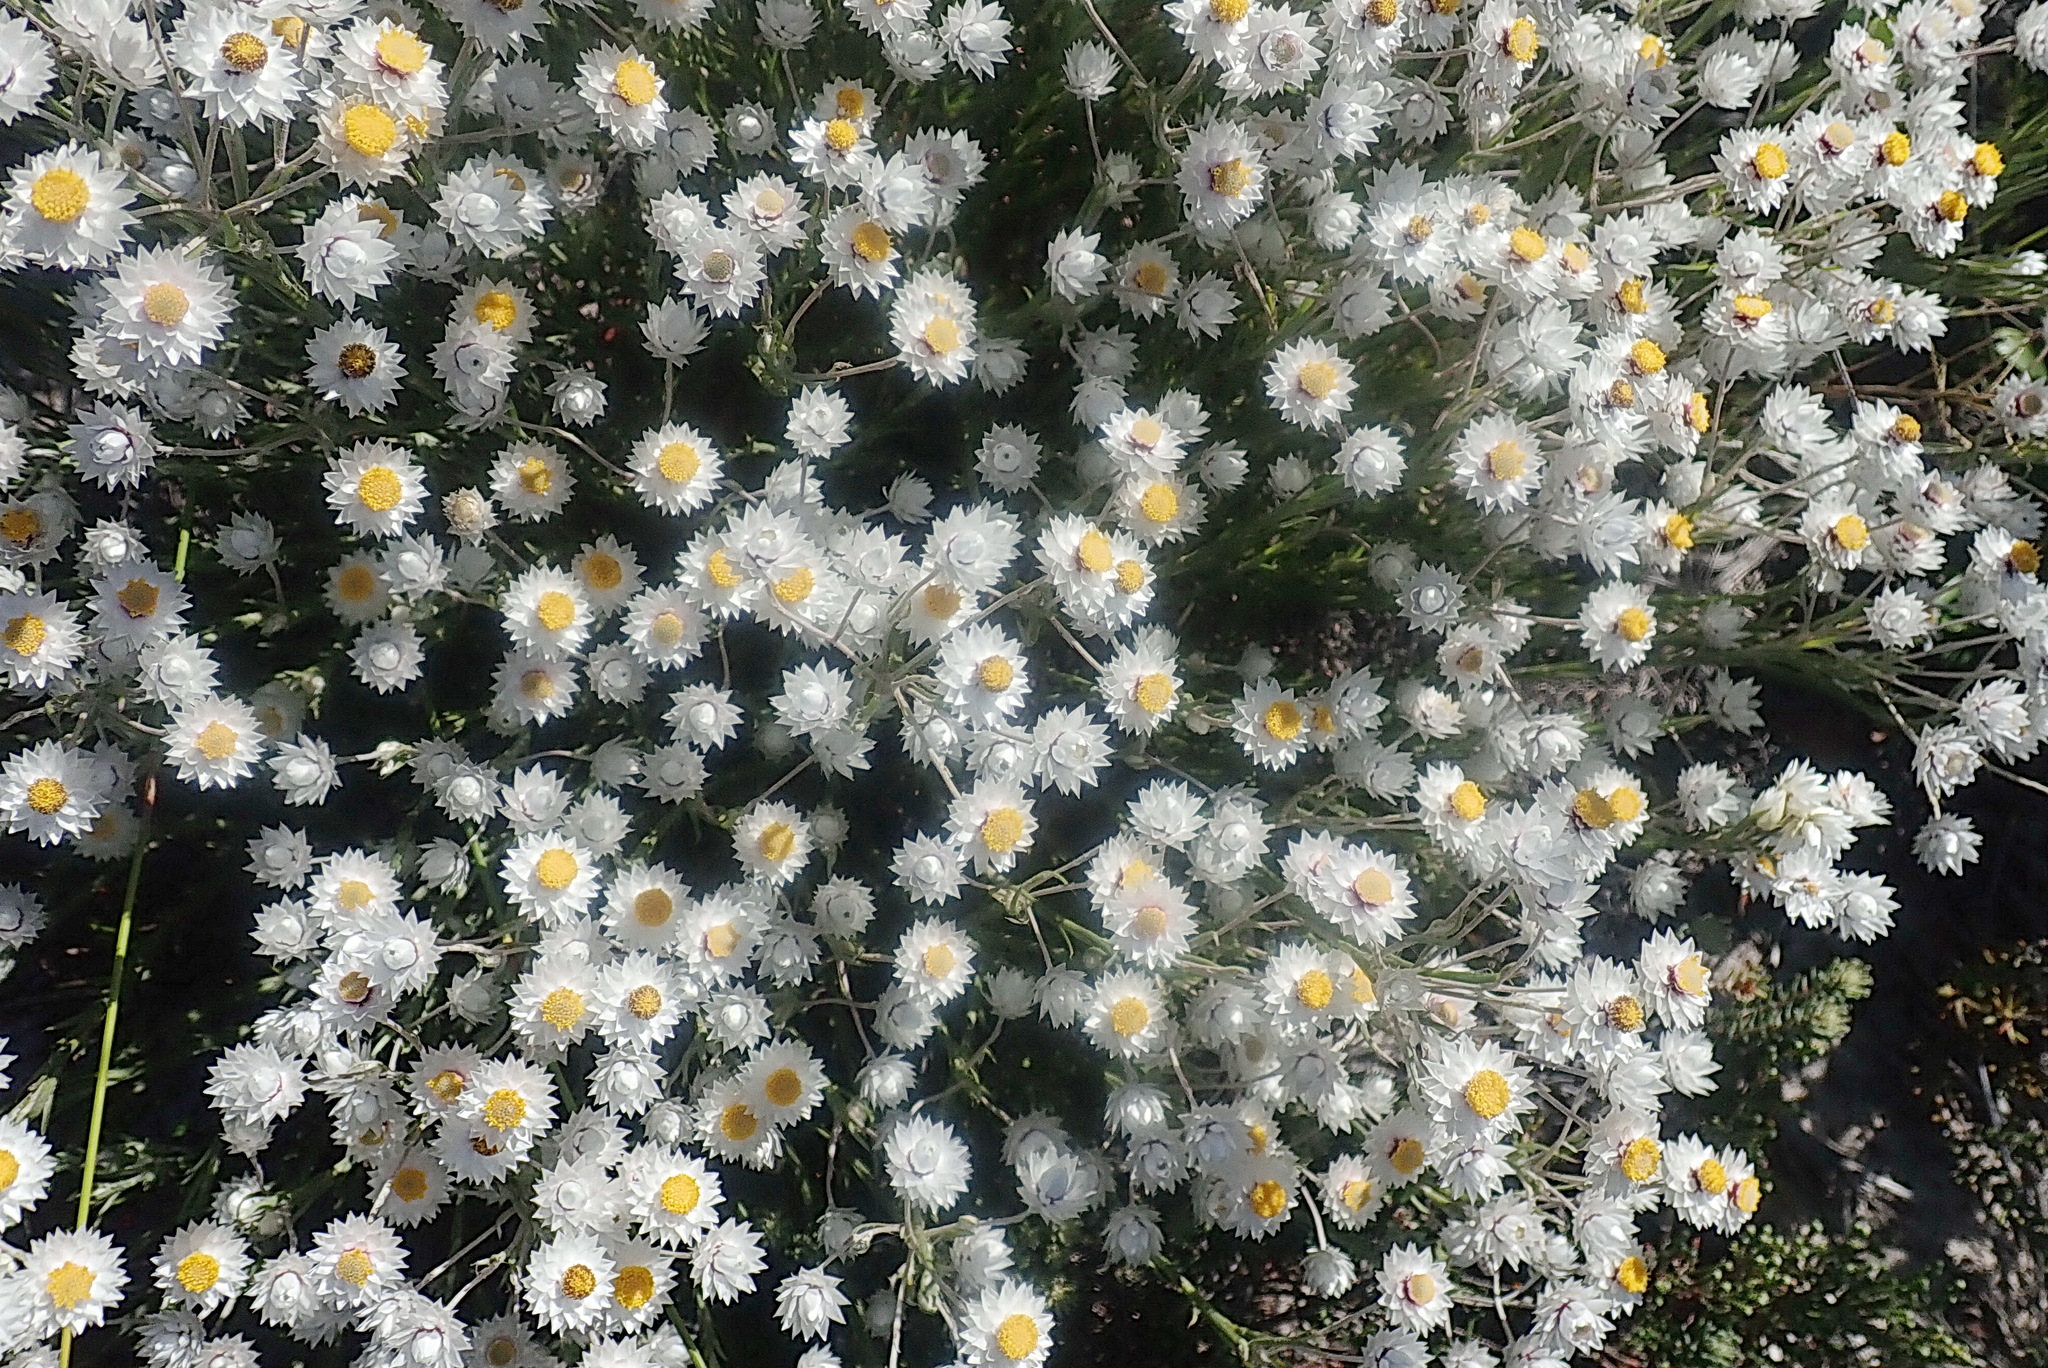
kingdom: Plantae
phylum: Tracheophyta
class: Magnoliopsida
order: Asterales
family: Asteraceae
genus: Achyranthemum
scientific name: Achyranthemum paniculatum
